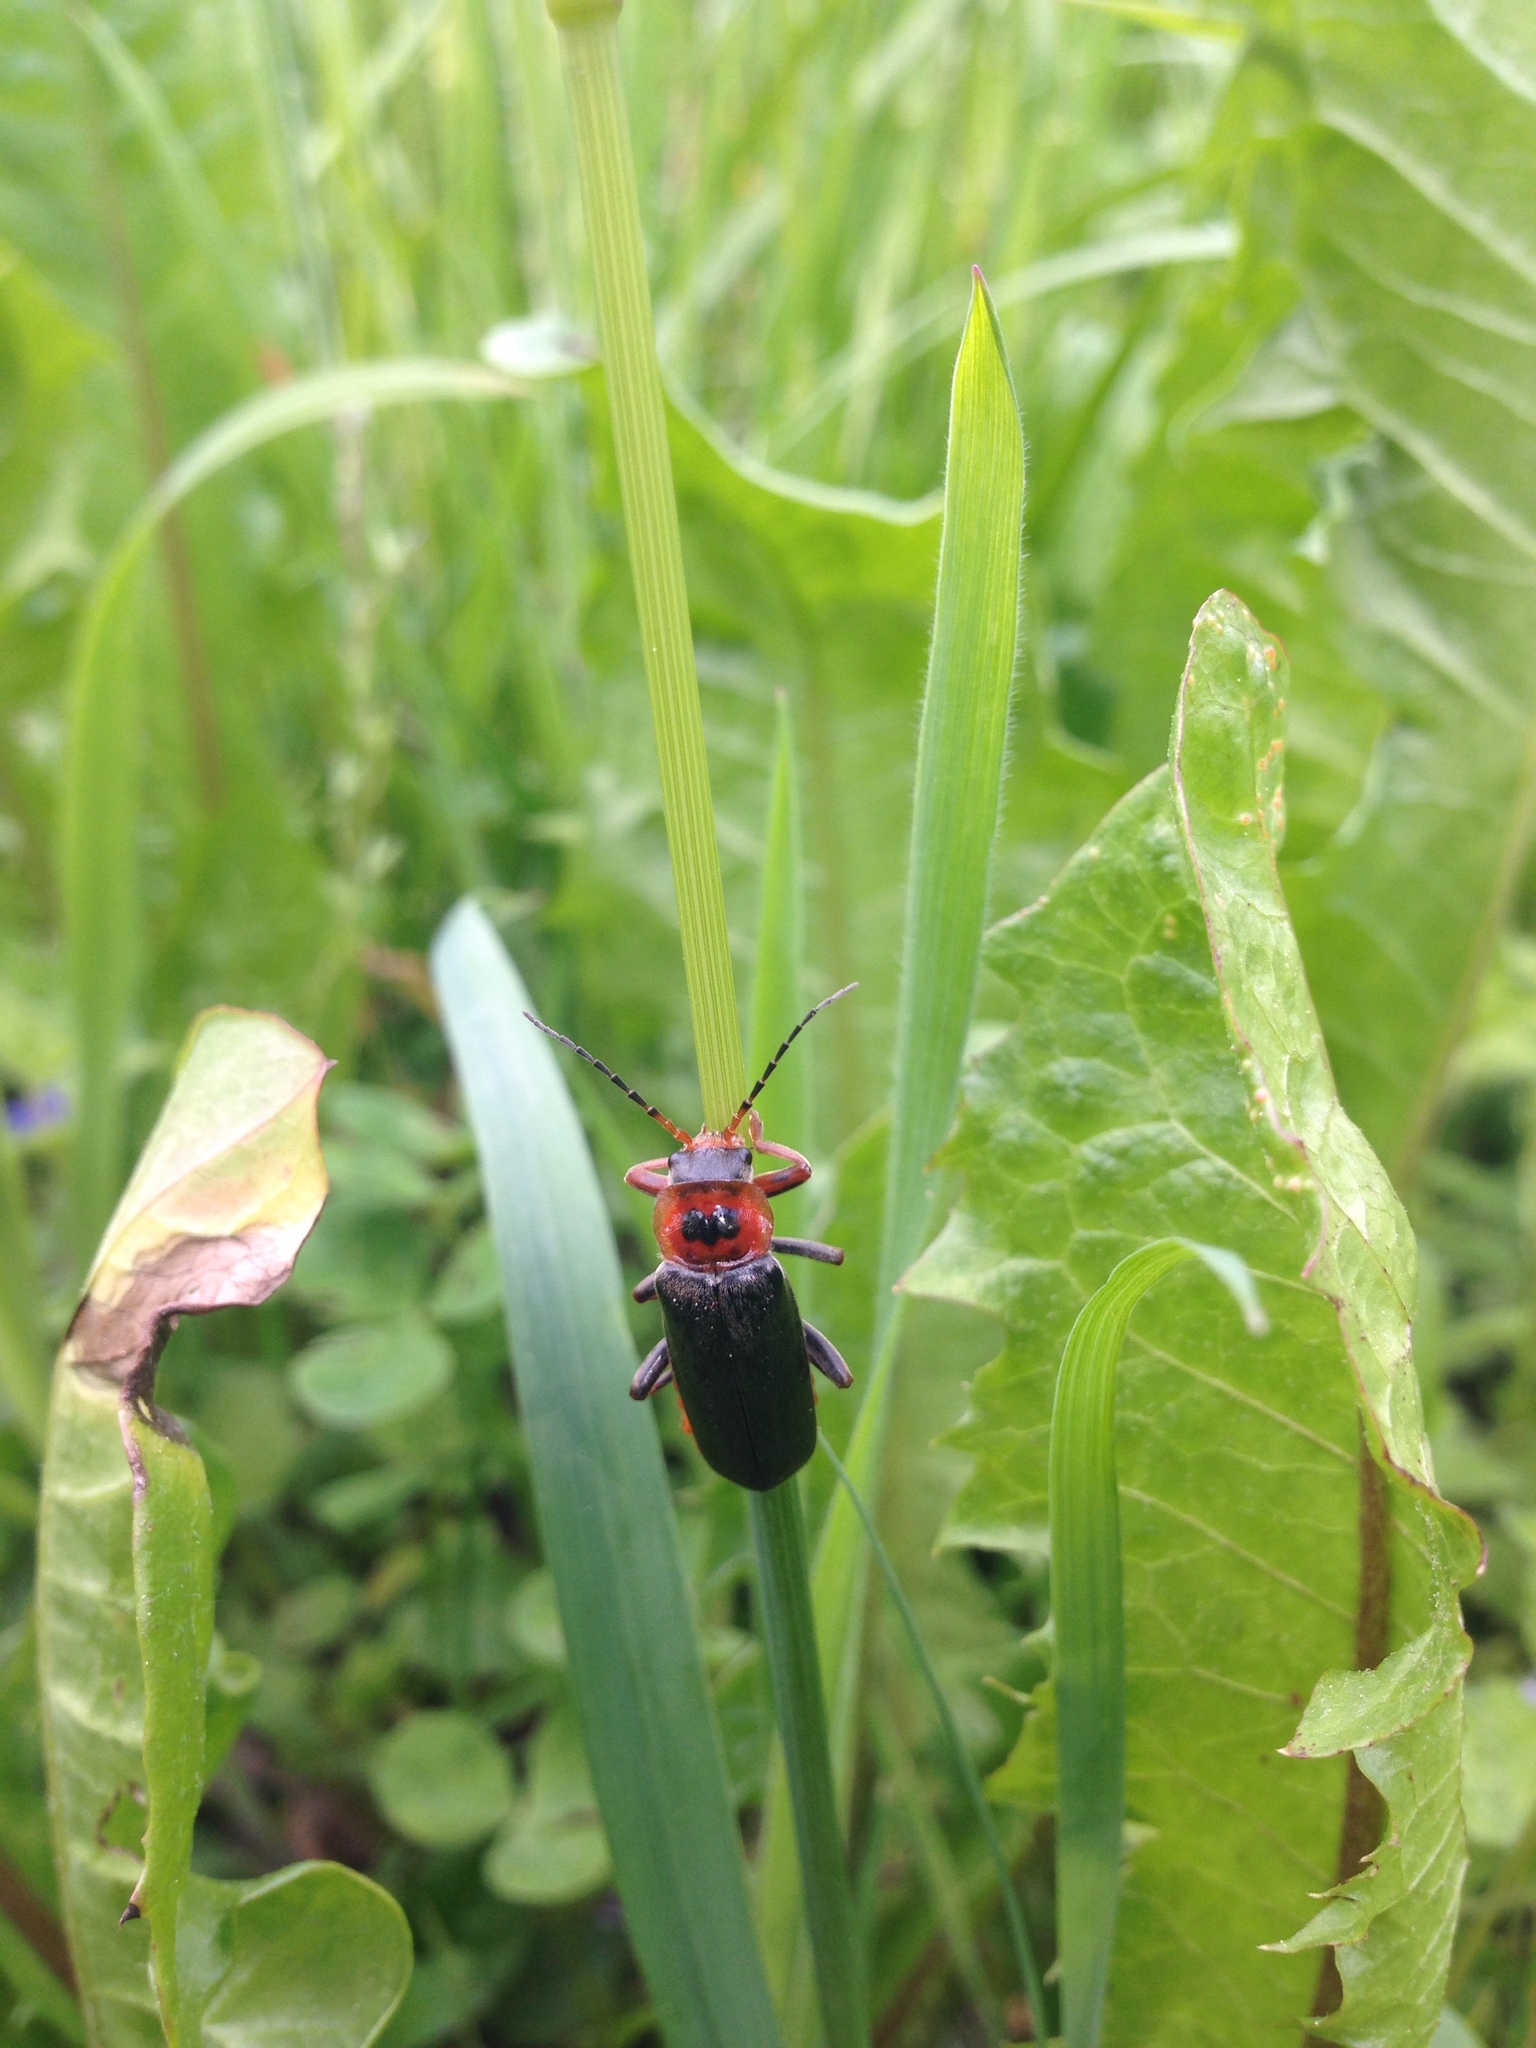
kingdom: Animalia
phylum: Arthropoda
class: Insecta
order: Coleoptera
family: Cantharidae
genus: Cantharis
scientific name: Cantharis rustica
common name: Soldier beetle
